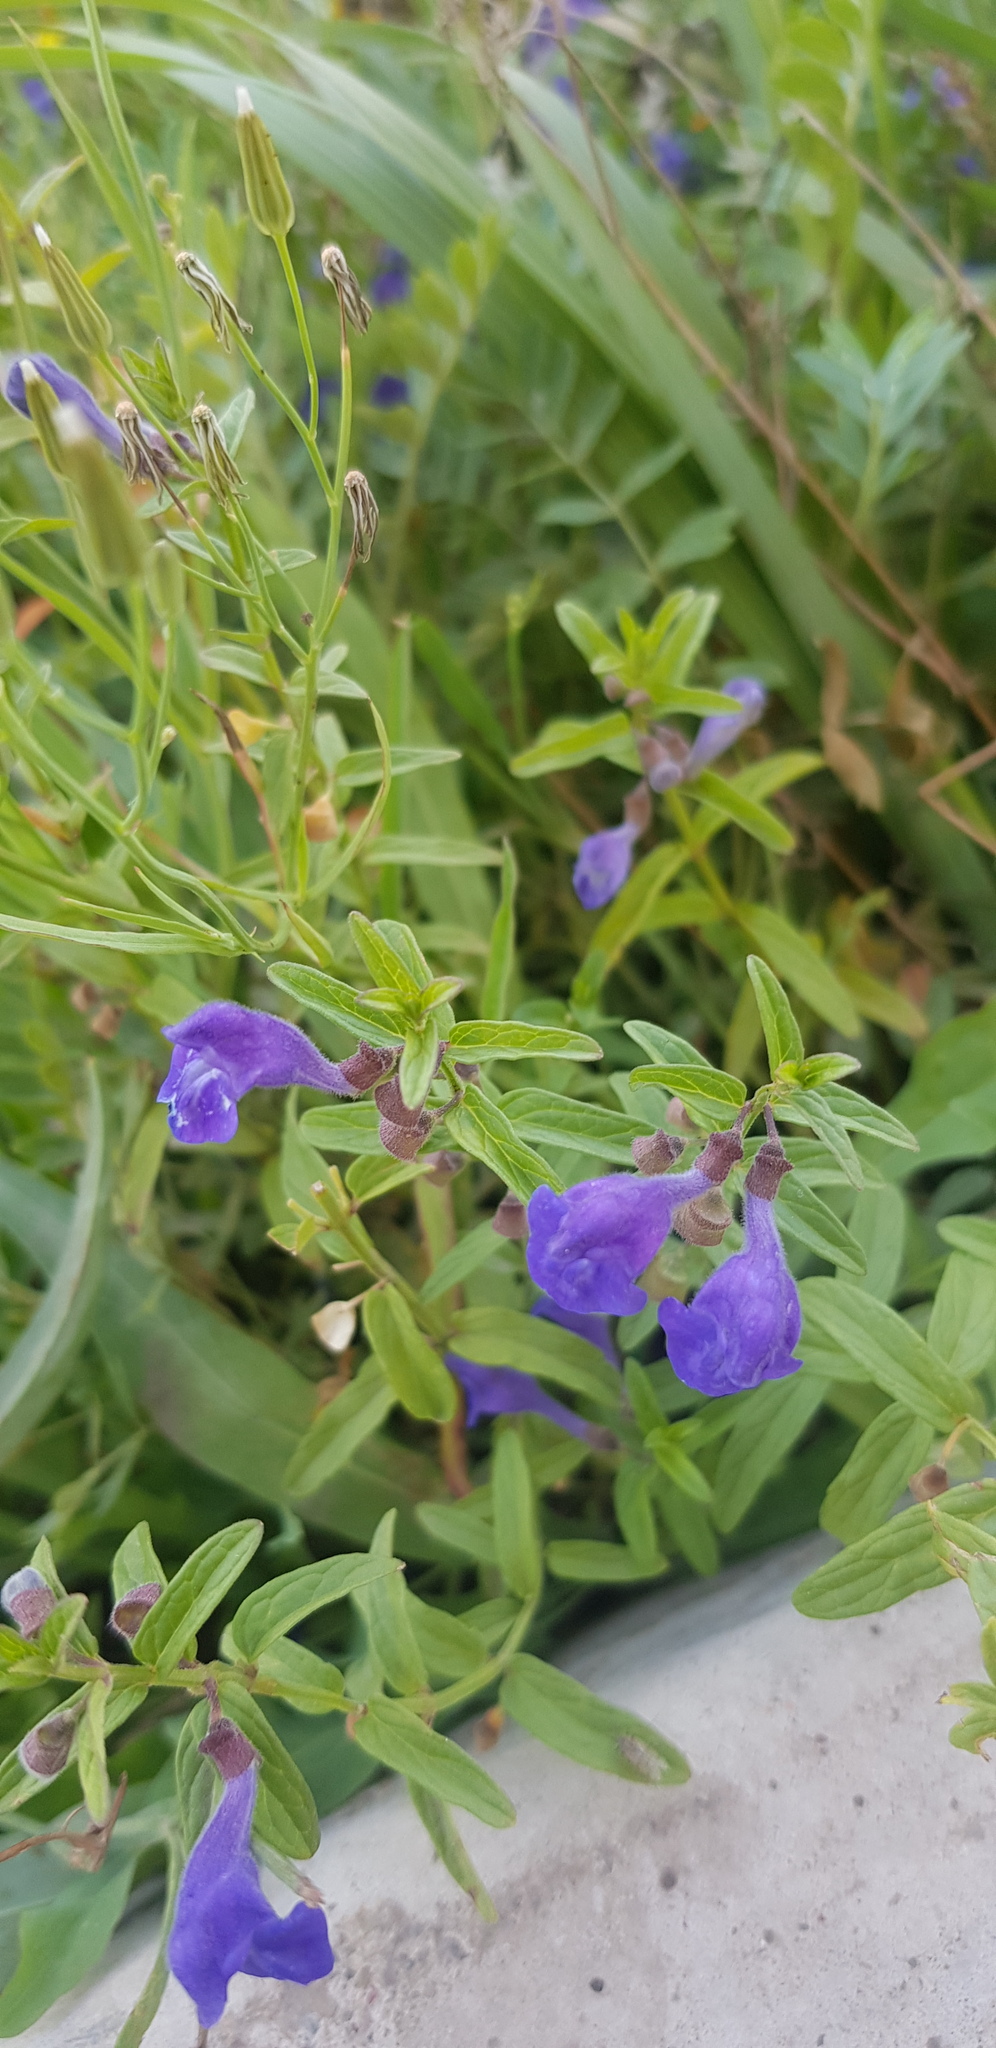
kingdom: Plantae
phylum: Tracheophyta
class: Magnoliopsida
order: Lamiales
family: Lamiaceae
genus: Scutellaria
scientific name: Scutellaria scordiifolia
